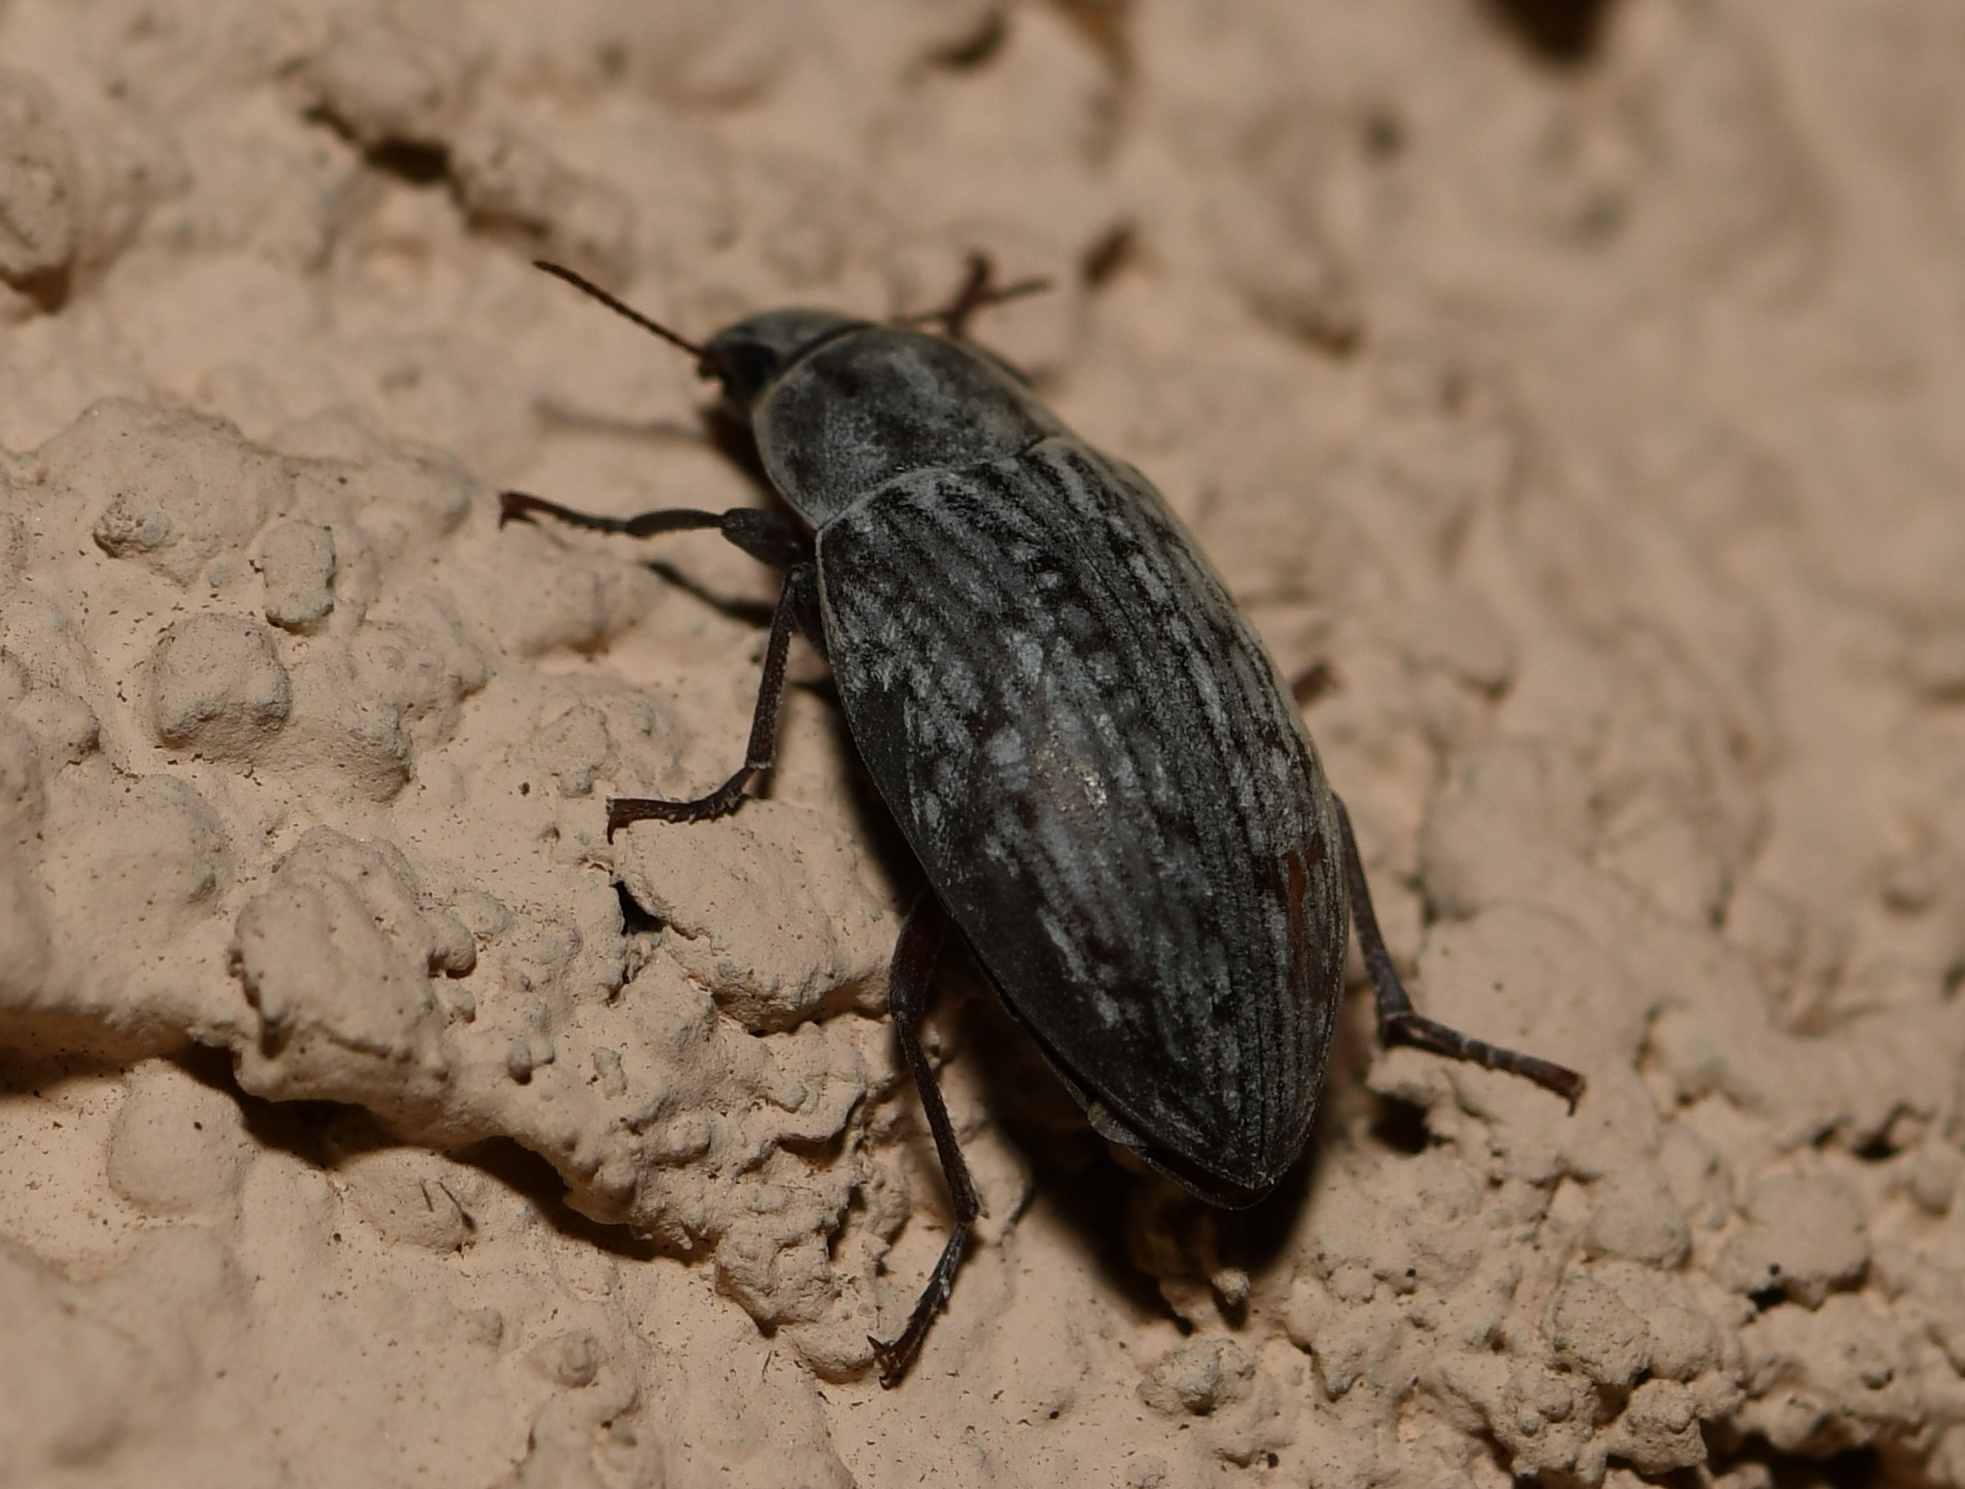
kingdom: Animalia
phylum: Arthropoda
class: Insecta
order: Coleoptera
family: Tenebrionidae
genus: Metopoloba
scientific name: Metopoloba pruinosa
